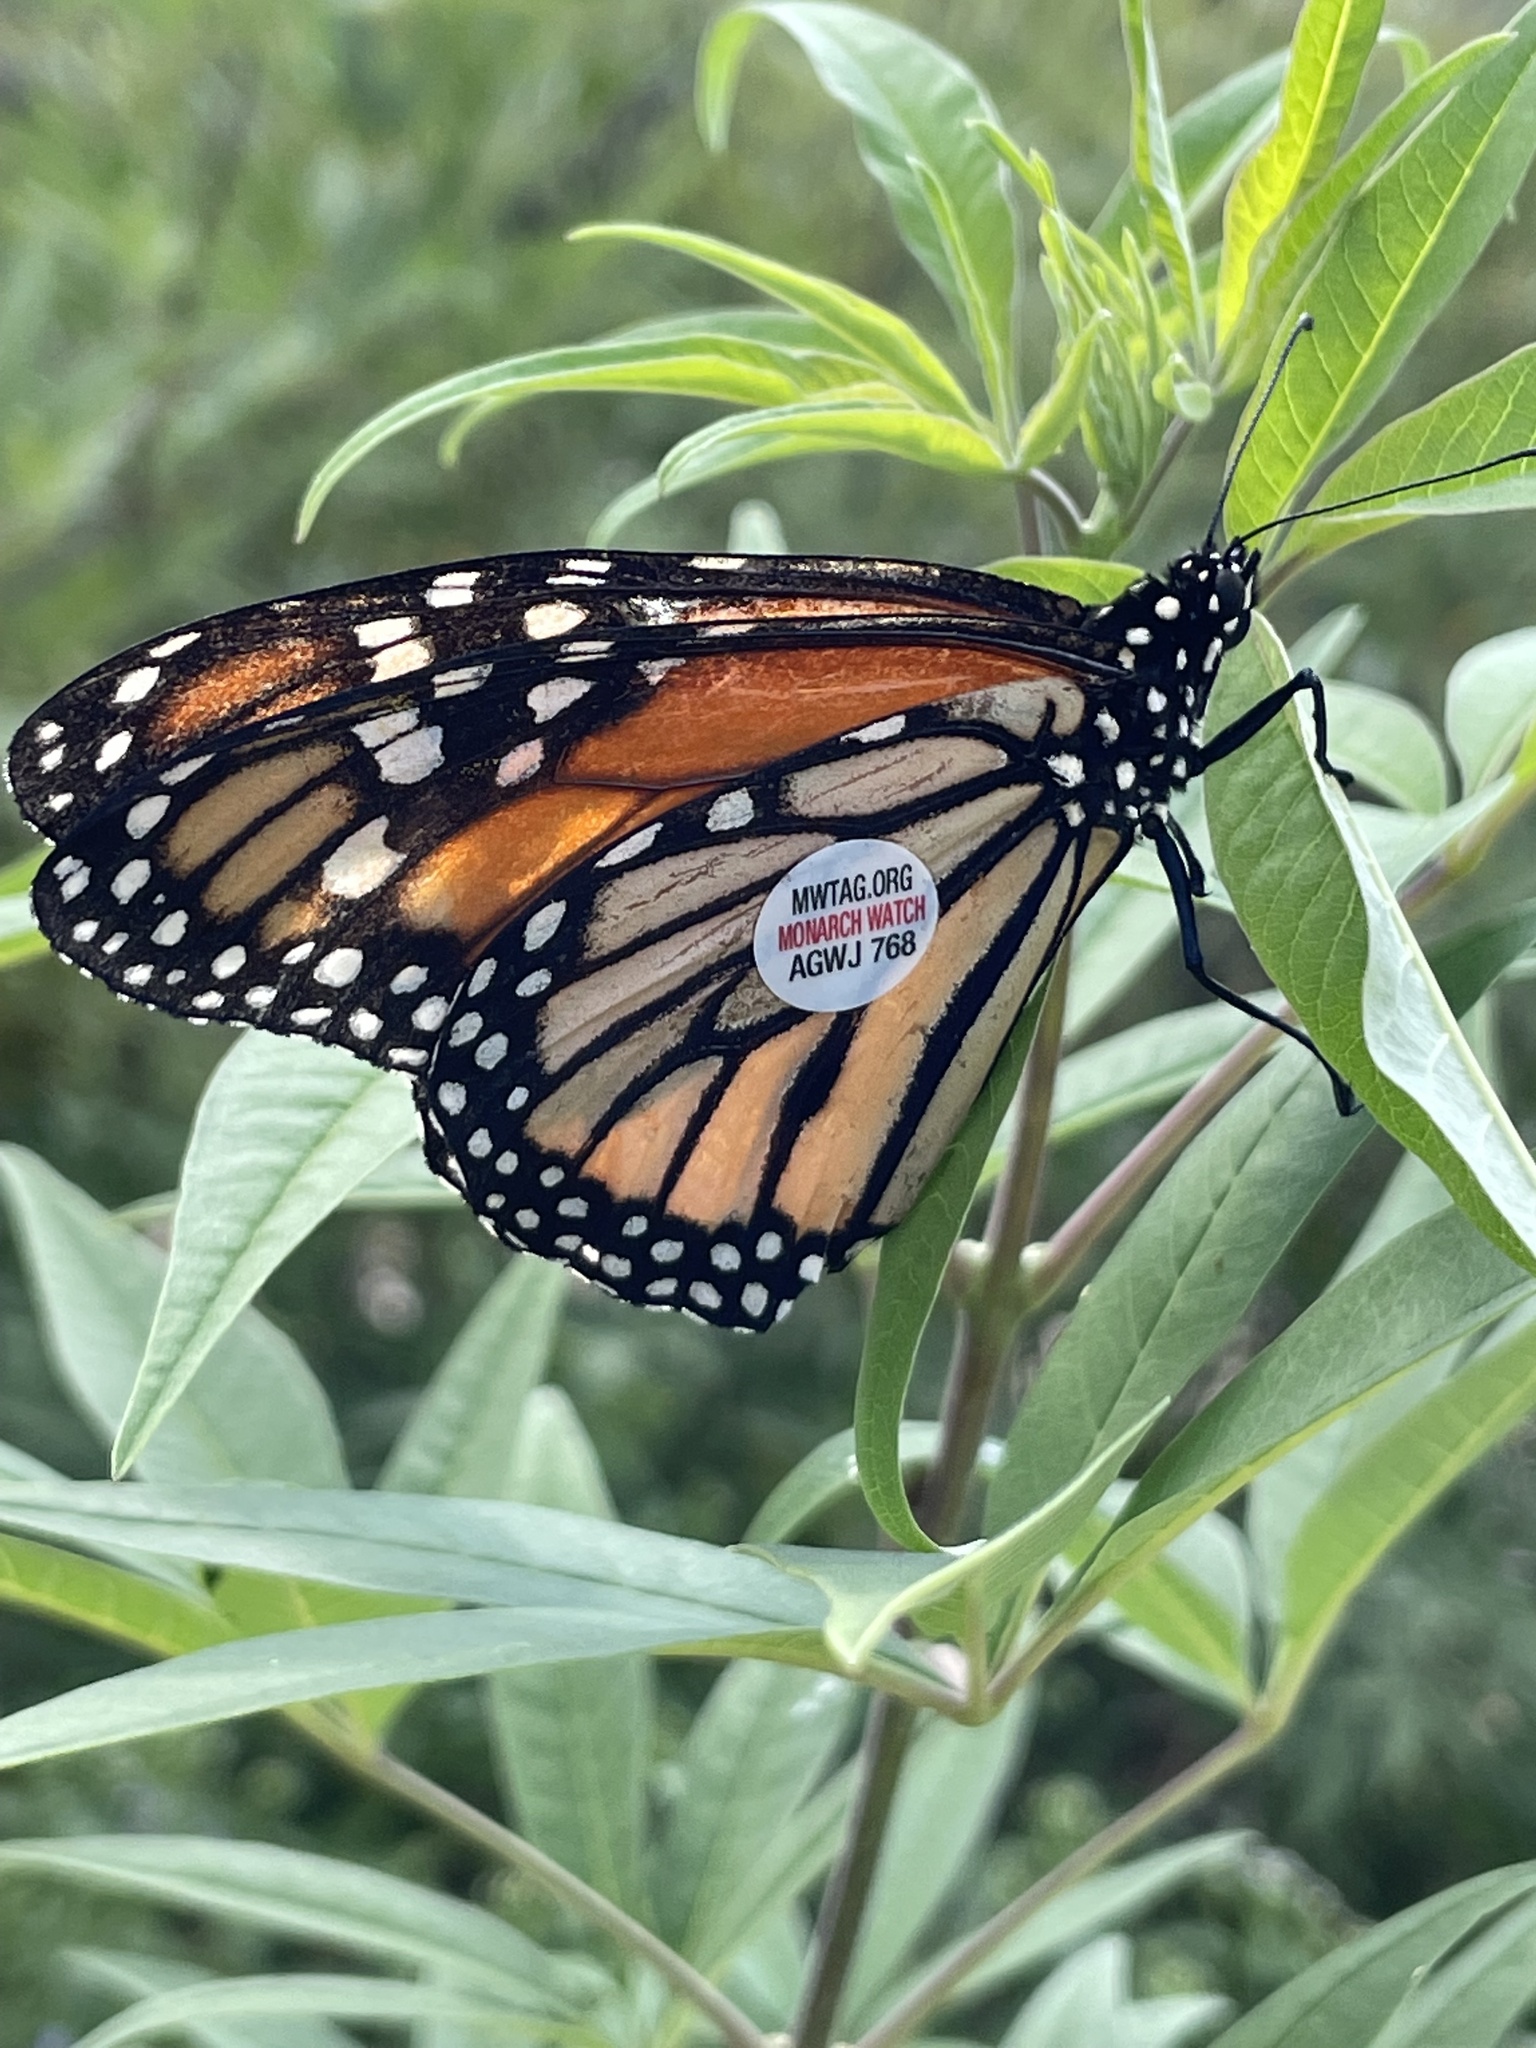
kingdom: Animalia
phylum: Arthropoda
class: Insecta
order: Lepidoptera
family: Nymphalidae
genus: Danaus
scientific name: Danaus plexippus
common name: Monarch
